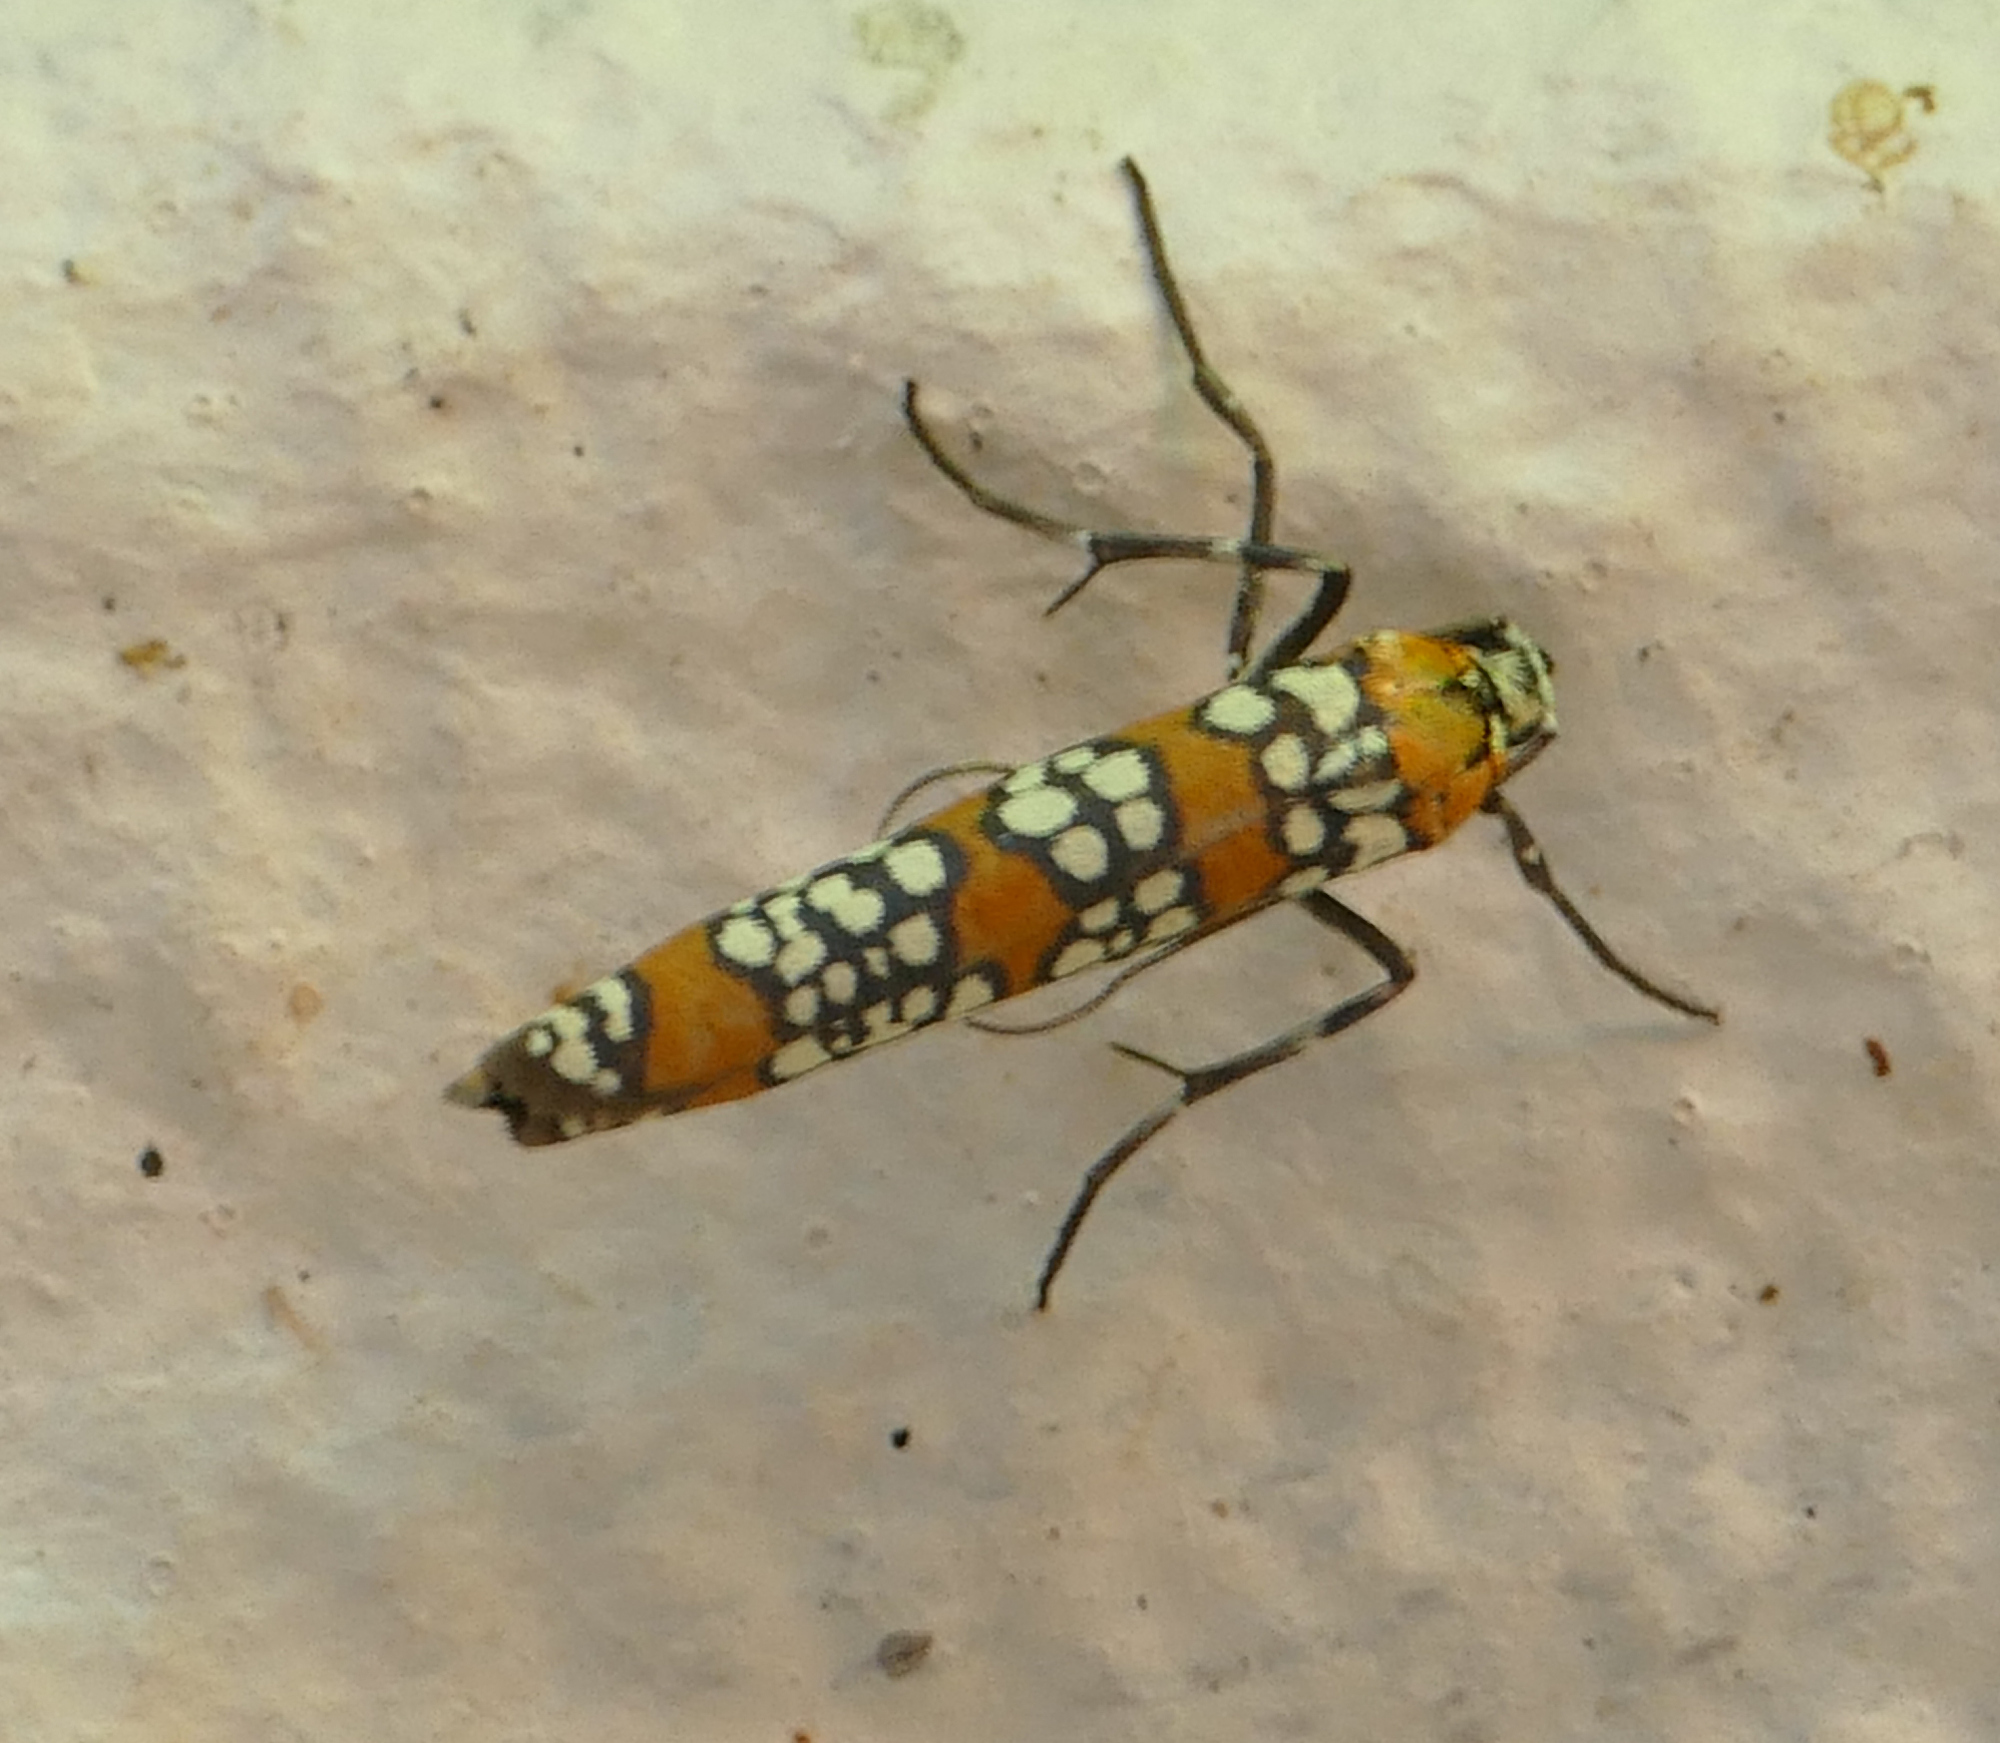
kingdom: Animalia
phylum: Arthropoda
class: Insecta
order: Lepidoptera
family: Attevidae
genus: Atteva
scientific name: Atteva punctella
